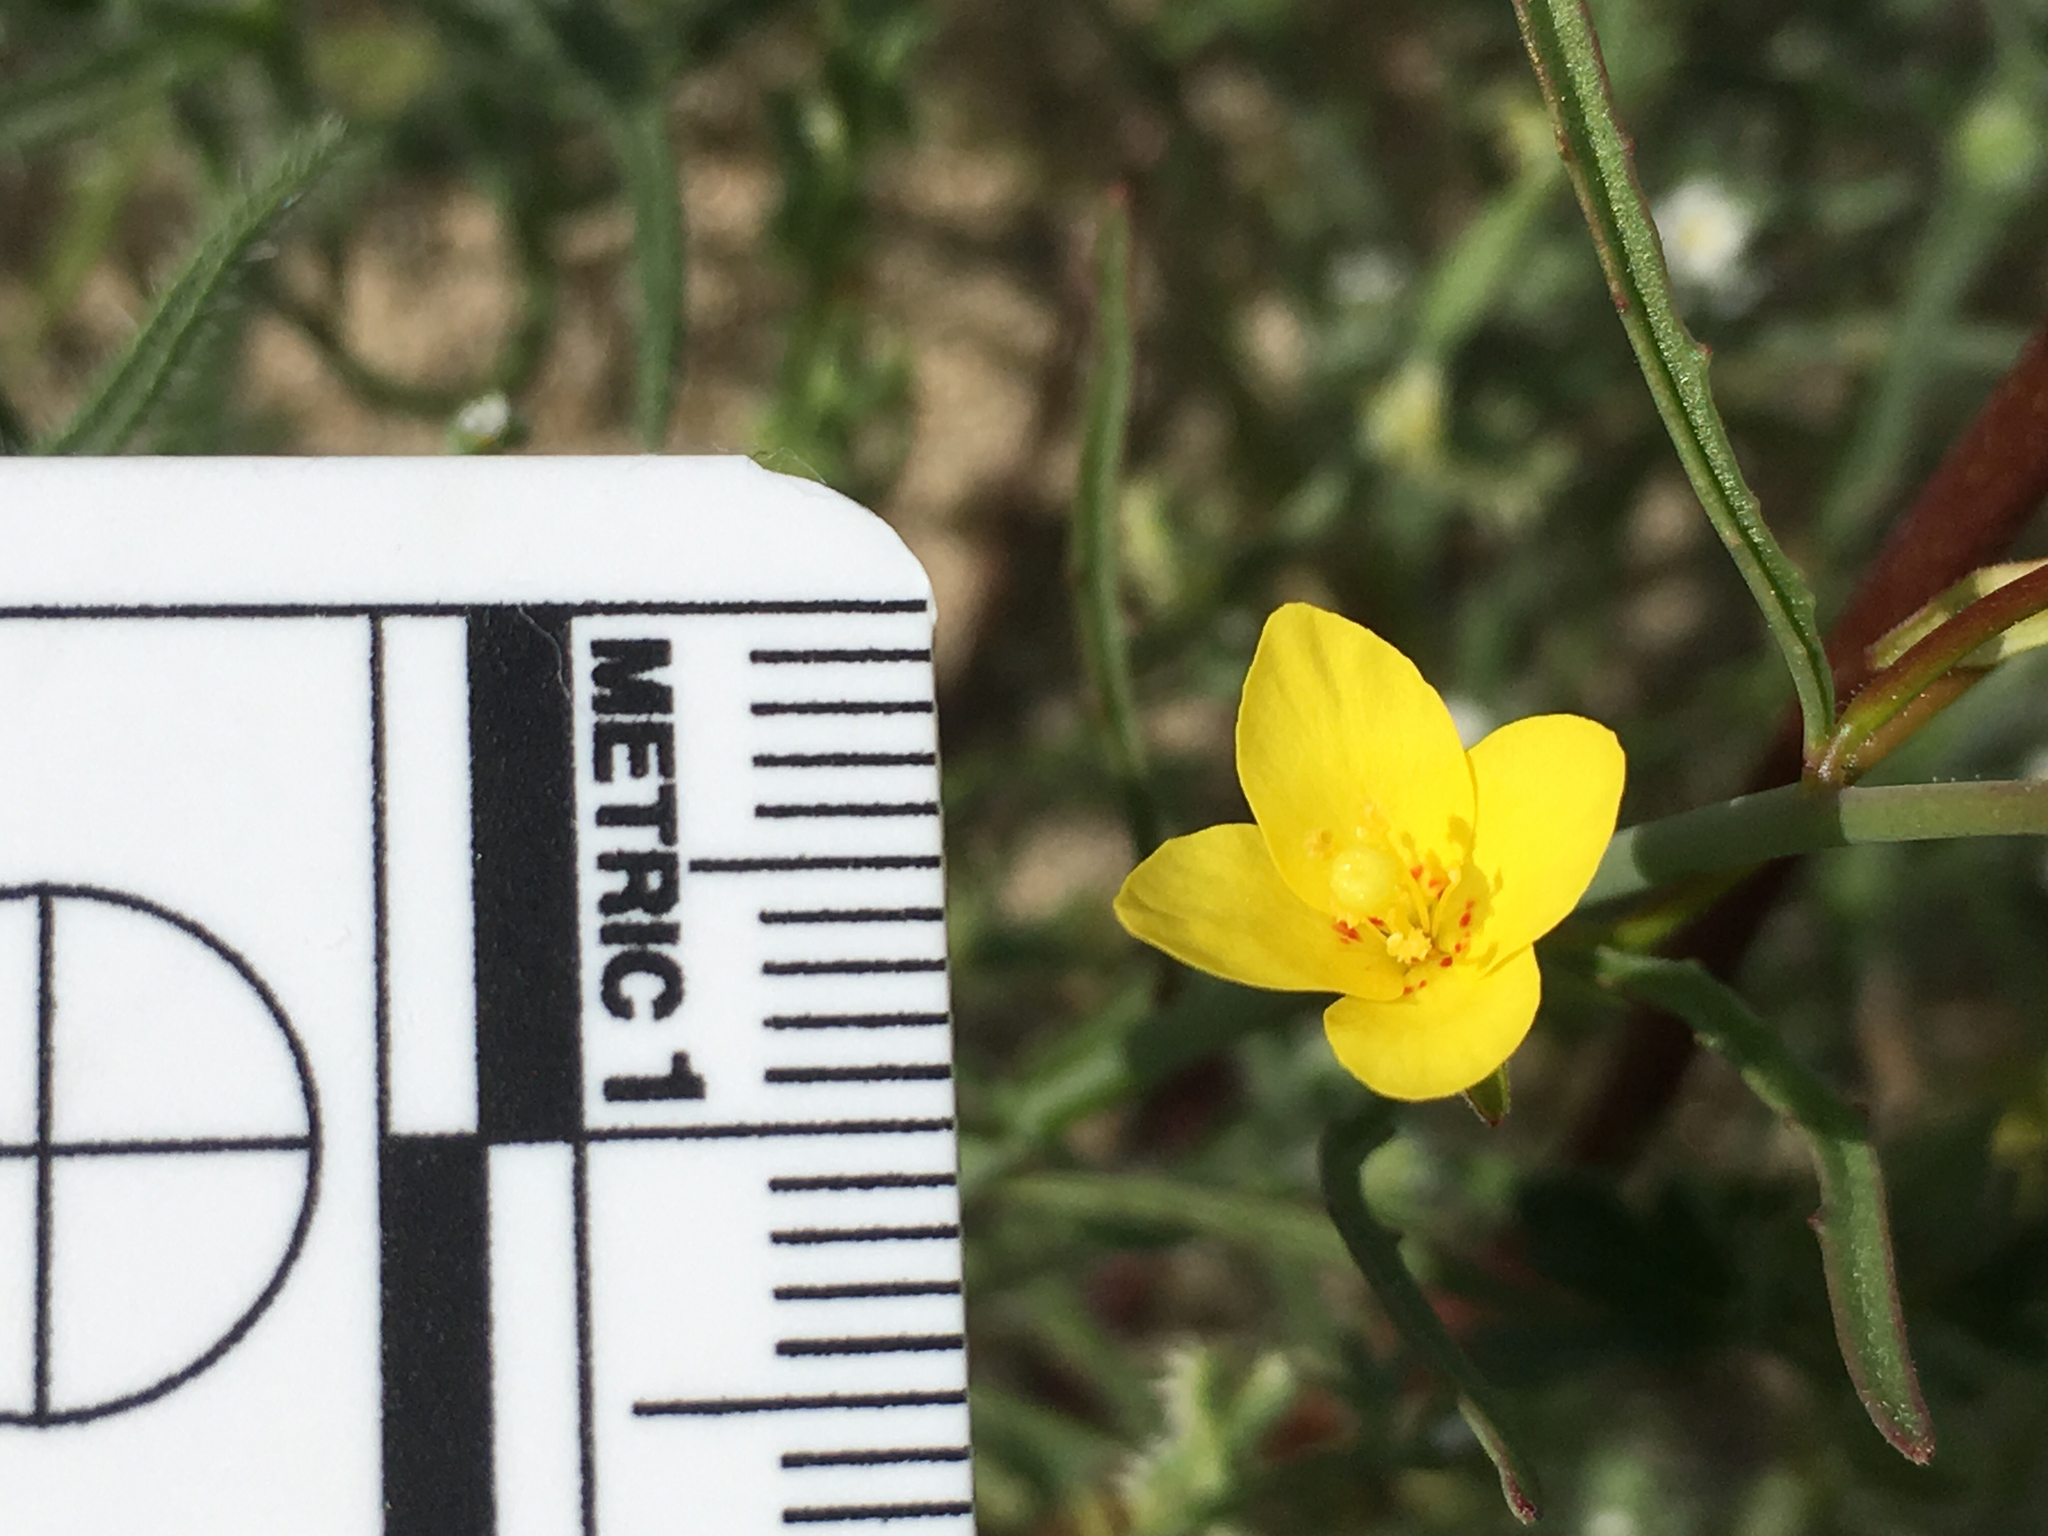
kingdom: Plantae
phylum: Tracheophyta
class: Magnoliopsida
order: Myrtales
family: Onagraceae
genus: Eulobus
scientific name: Eulobus californicus
